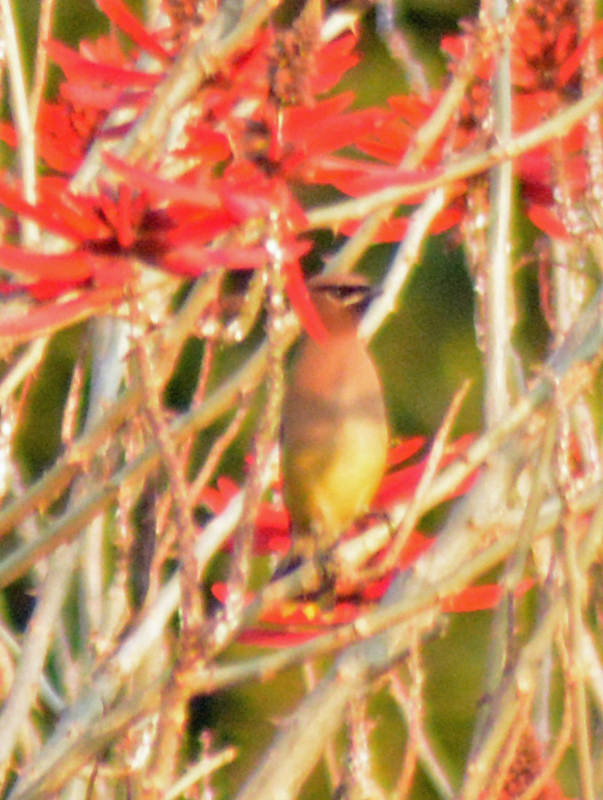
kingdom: Animalia
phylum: Chordata
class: Aves
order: Passeriformes
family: Bombycillidae
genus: Bombycilla
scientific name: Bombycilla cedrorum
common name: Cedar waxwing
